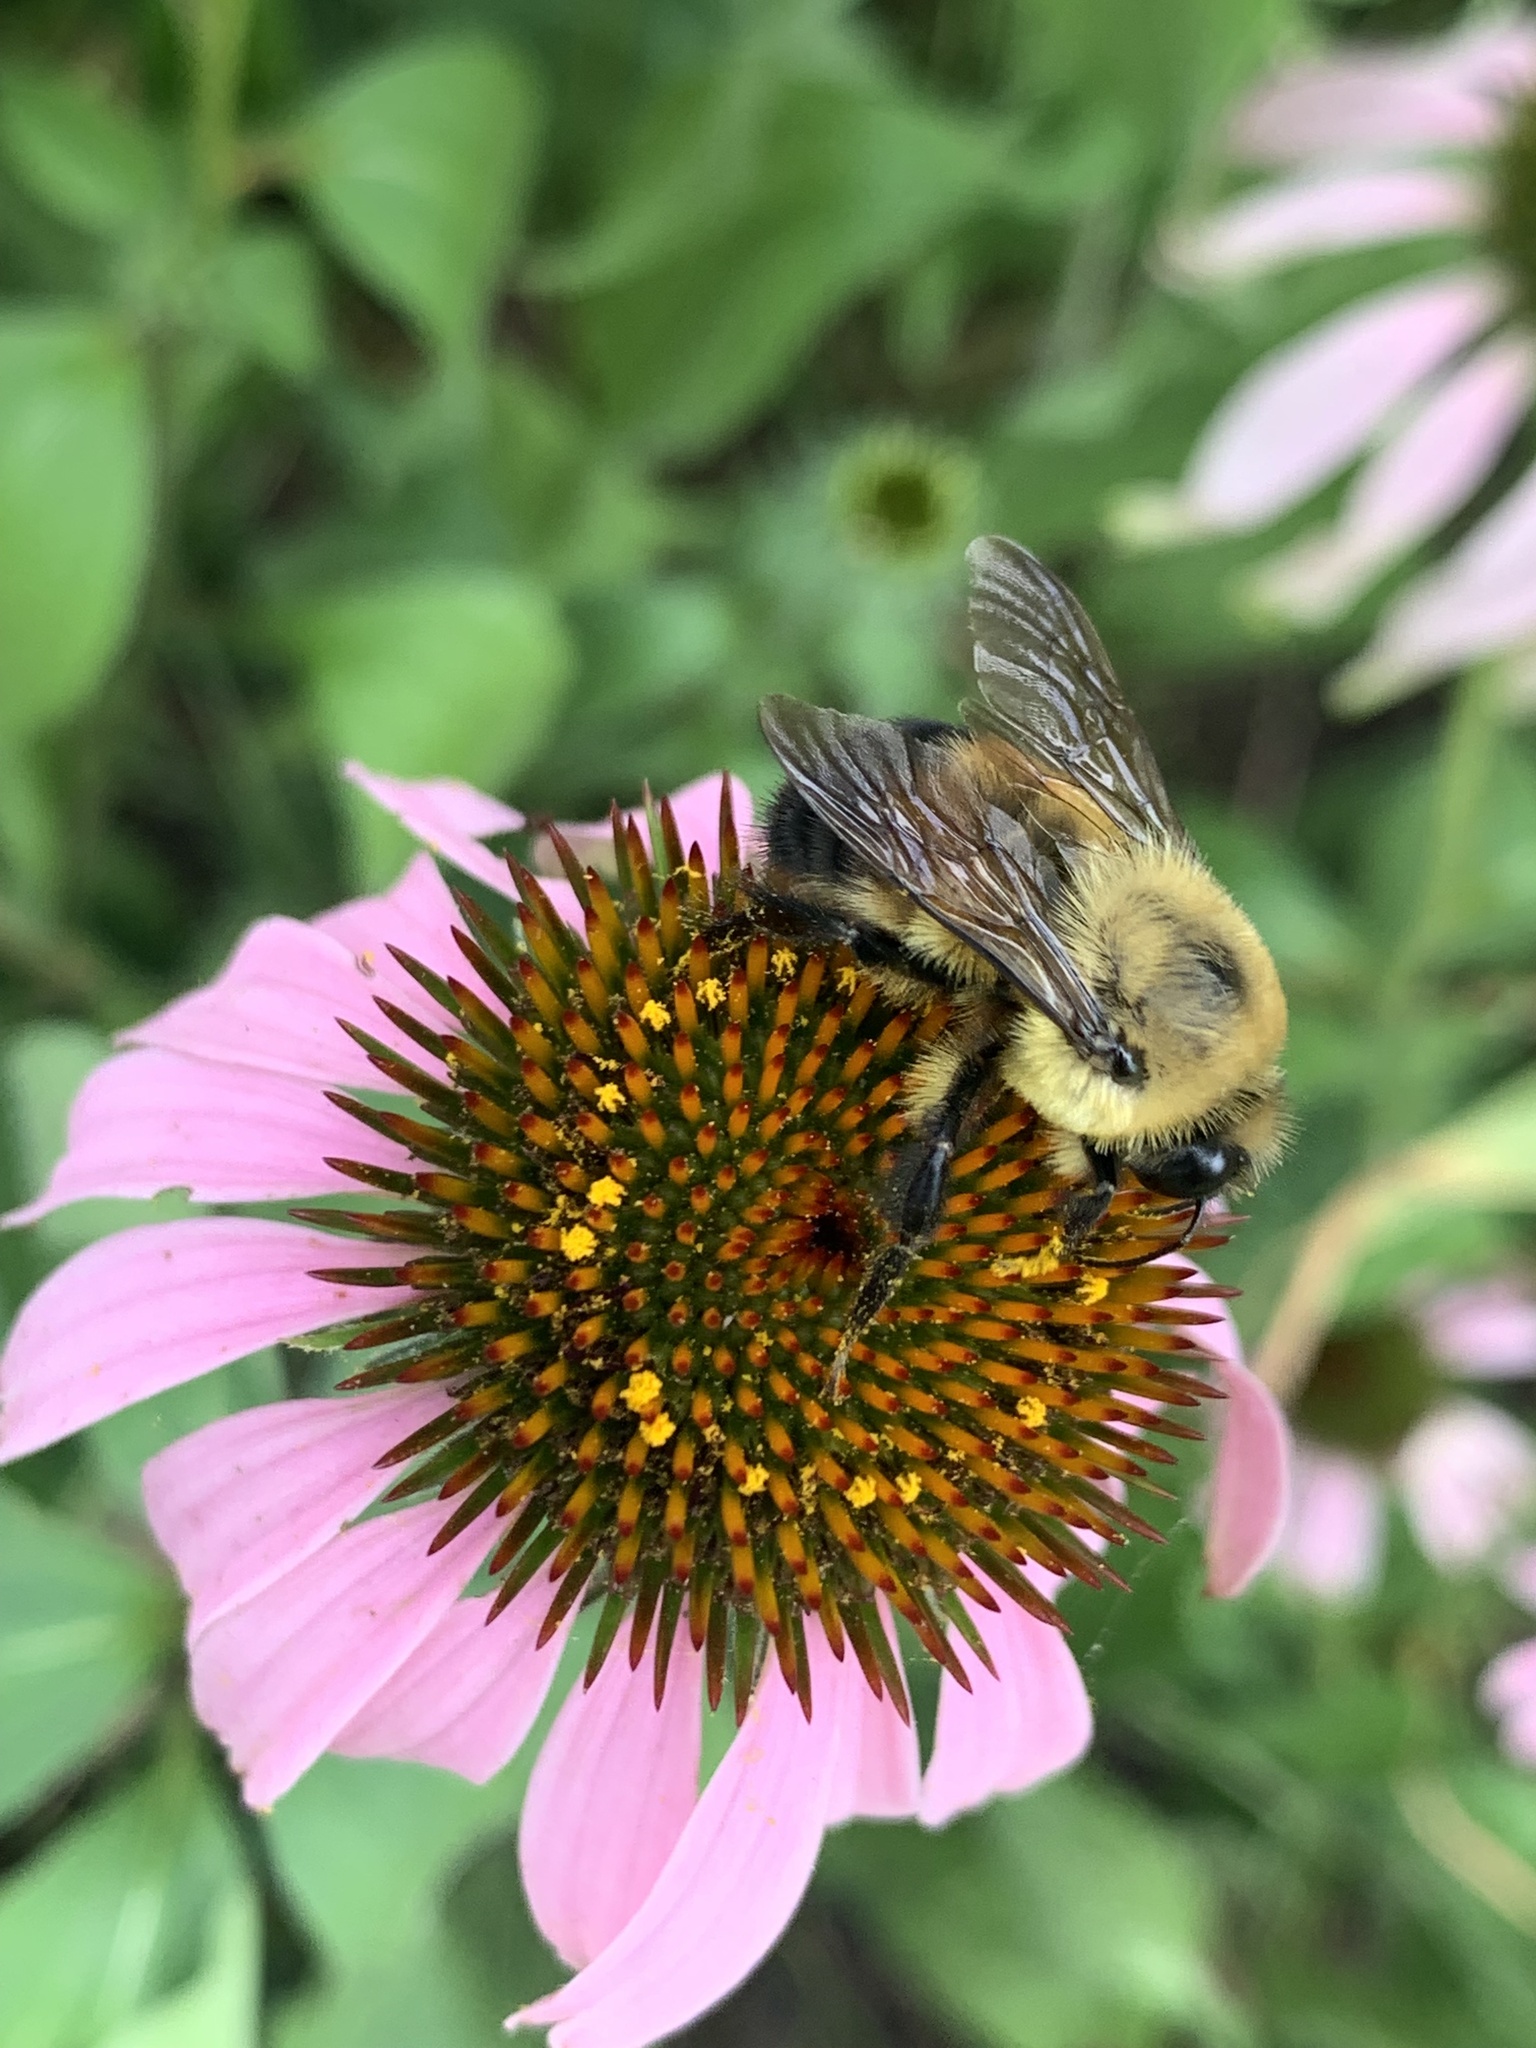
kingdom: Animalia
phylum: Arthropoda
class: Insecta
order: Hymenoptera
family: Apidae
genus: Bombus
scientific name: Bombus griseocollis
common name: Brown-belted bumble bee
